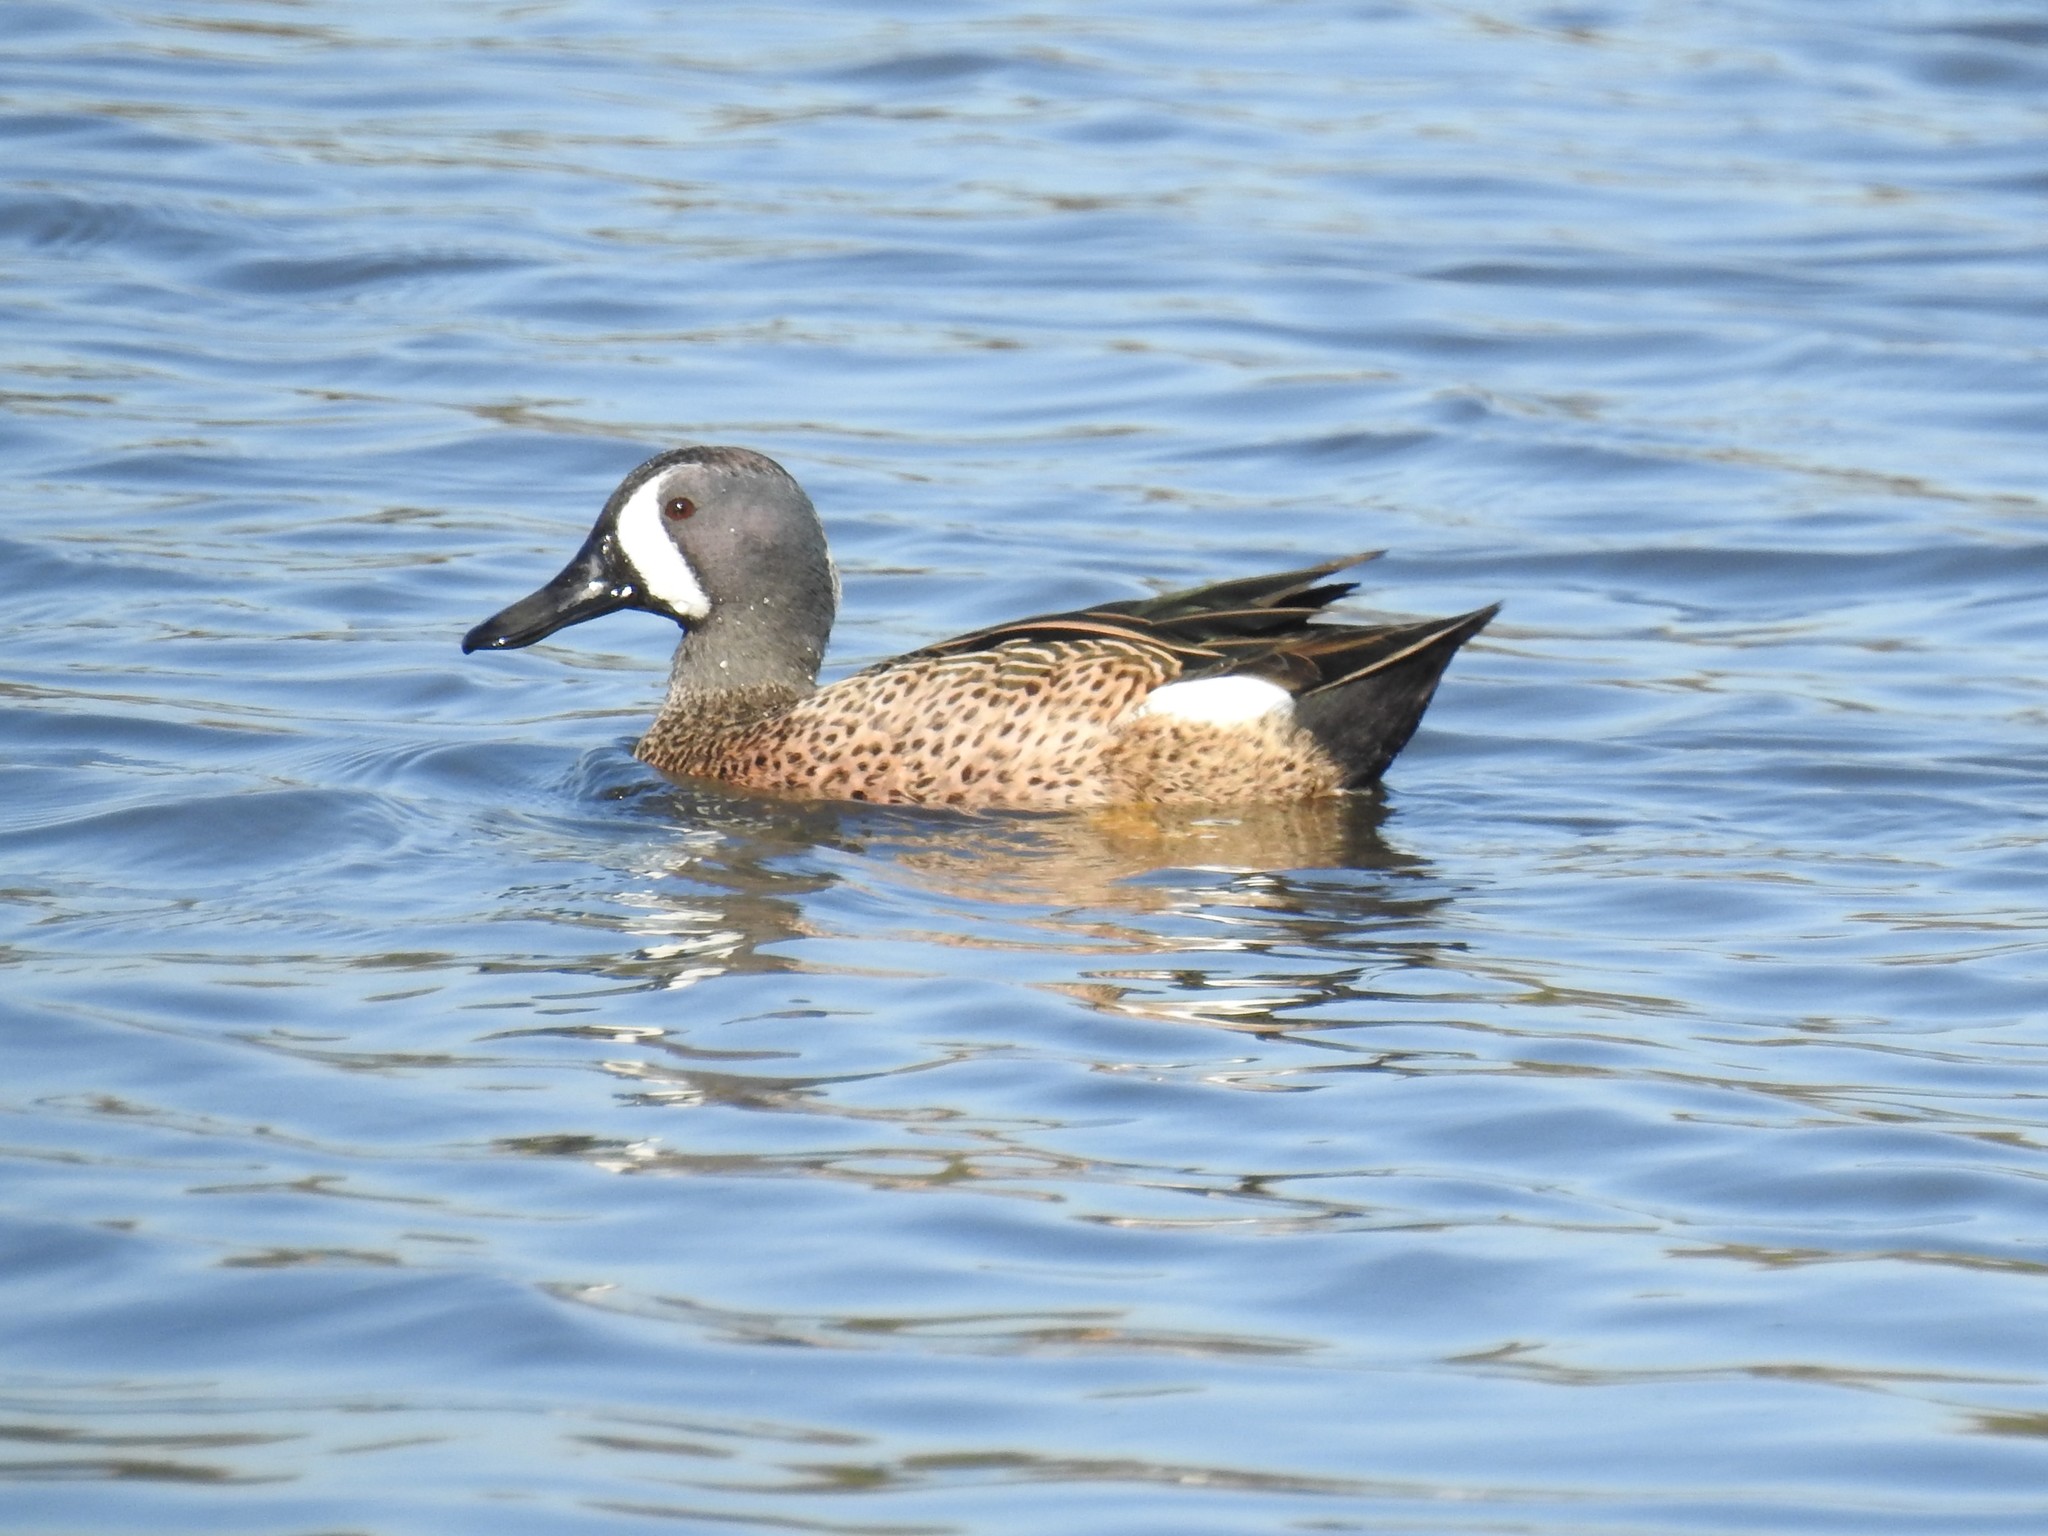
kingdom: Animalia
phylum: Chordata
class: Aves
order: Anseriformes
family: Anatidae
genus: Spatula
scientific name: Spatula discors
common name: Blue-winged teal
